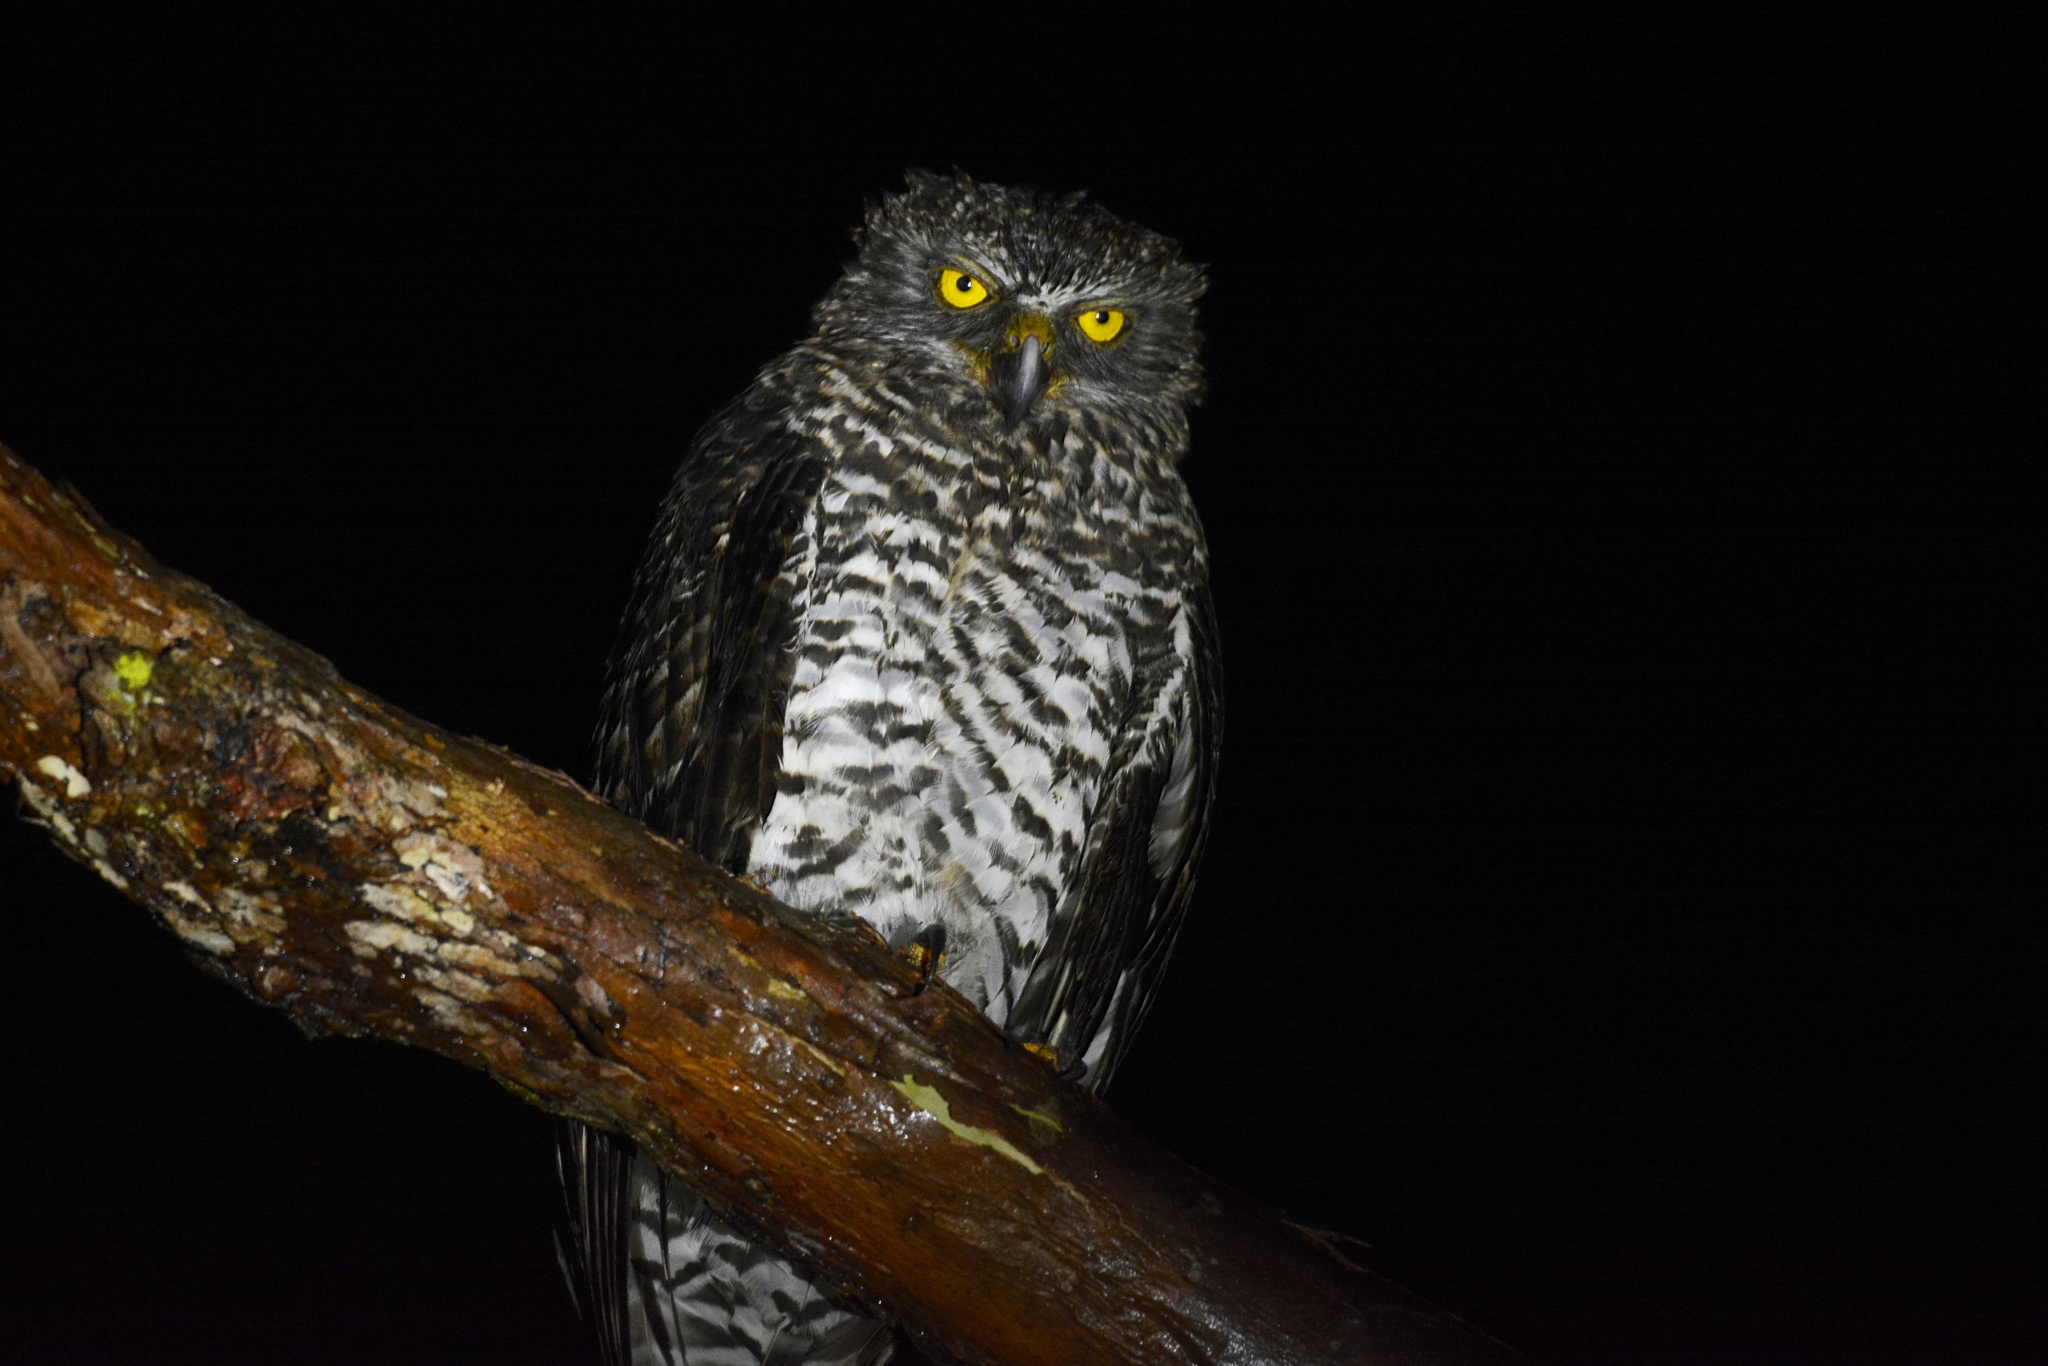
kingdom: Animalia
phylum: Chordata
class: Aves
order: Strigiformes
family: Strigidae
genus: Ninox
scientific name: Ninox strenua
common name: Powerful owl
